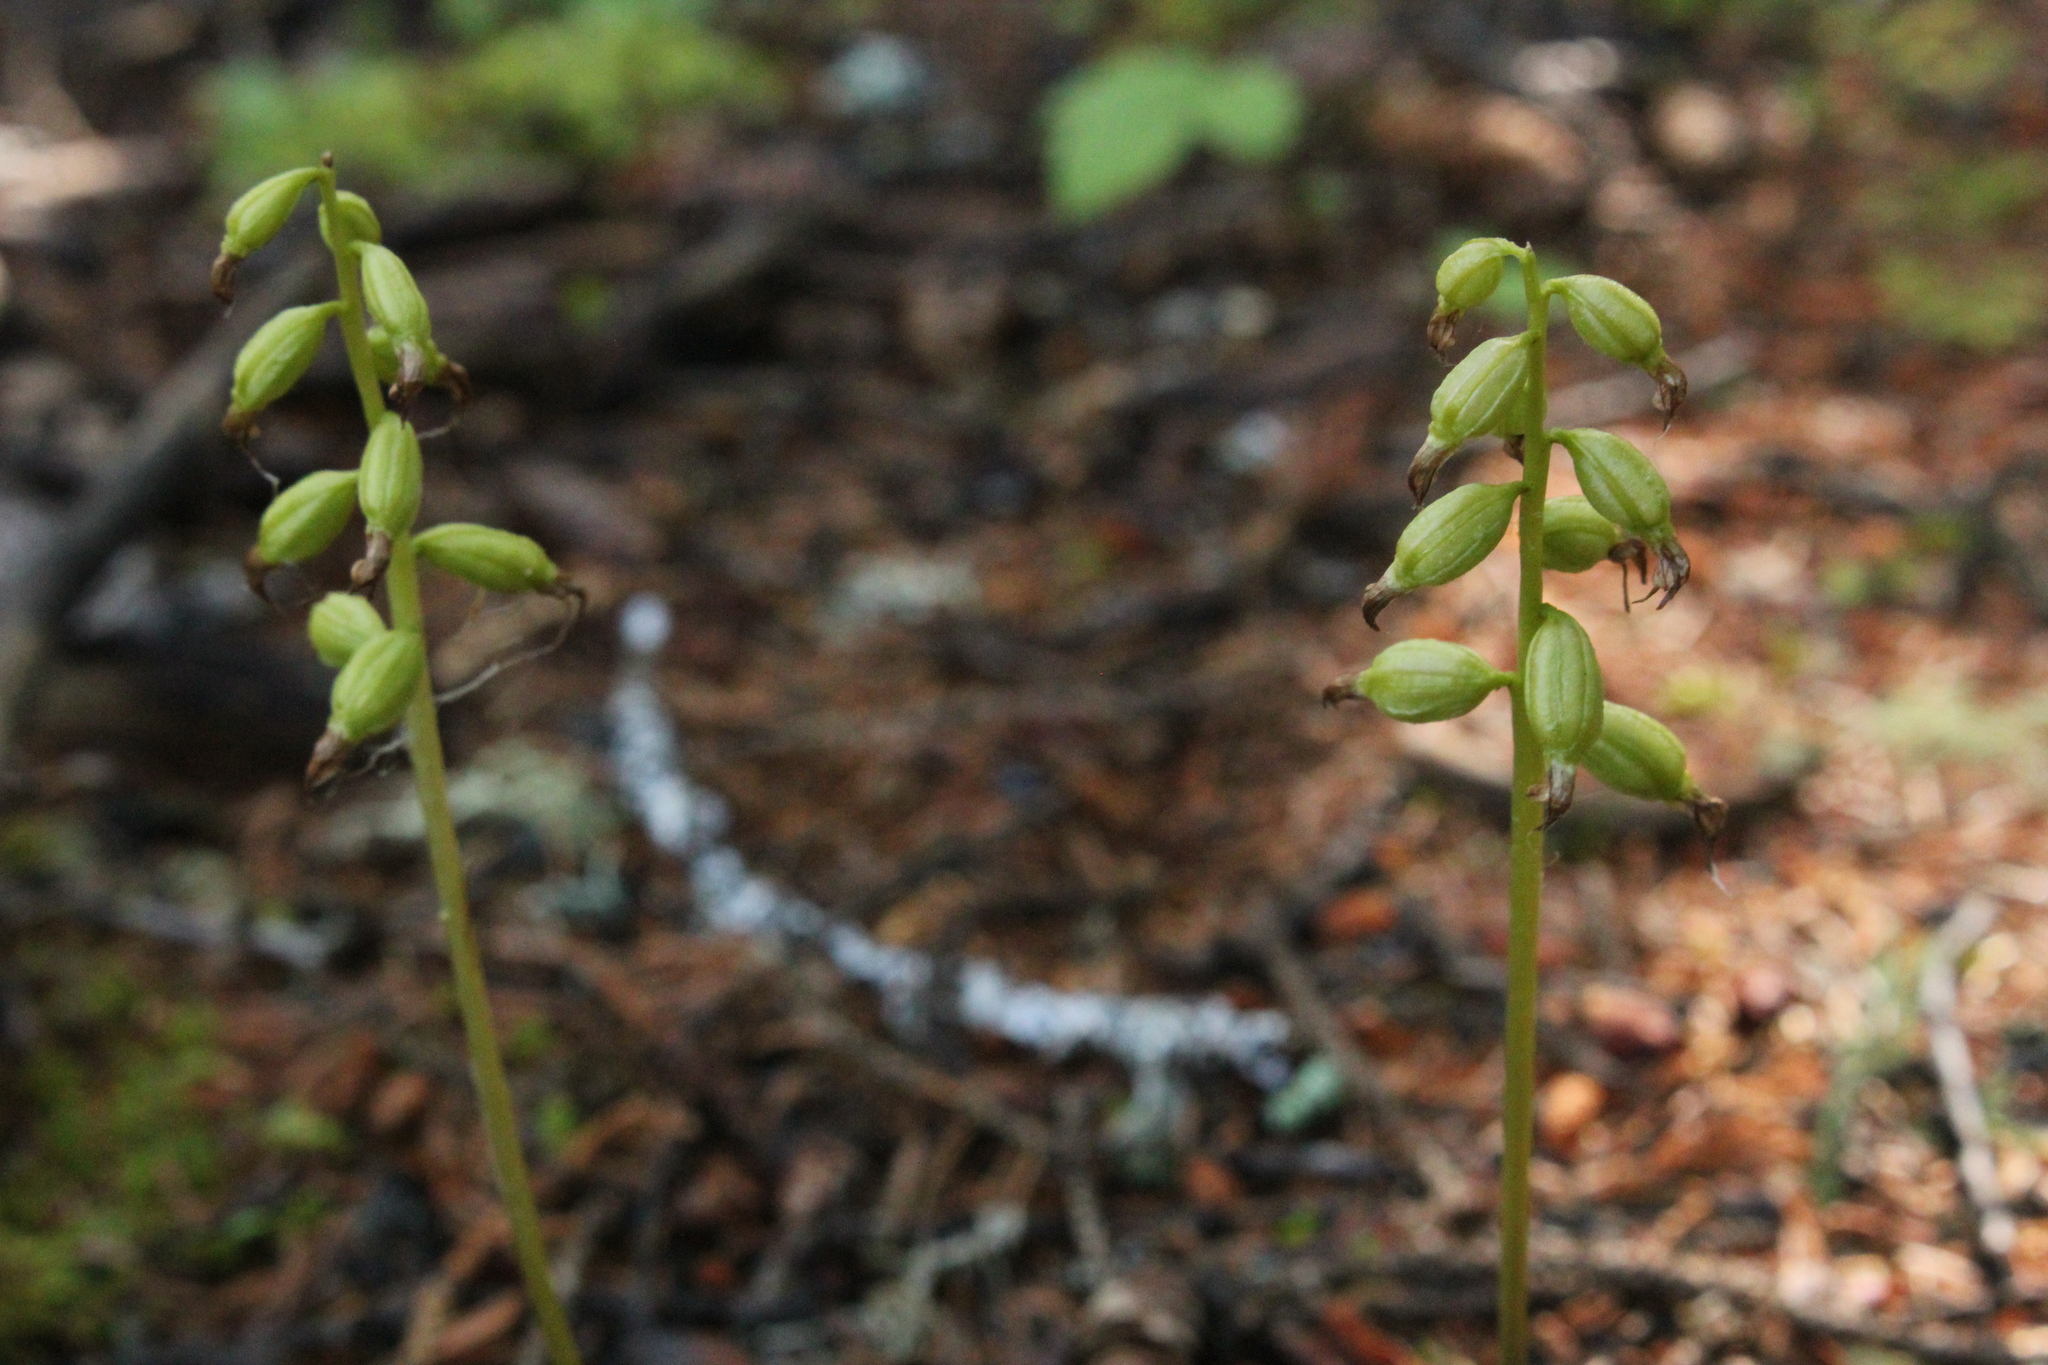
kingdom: Plantae
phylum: Tracheophyta
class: Liliopsida
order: Asparagales
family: Orchidaceae
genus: Corallorhiza
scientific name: Corallorhiza trifida
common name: Yellow coralroot
